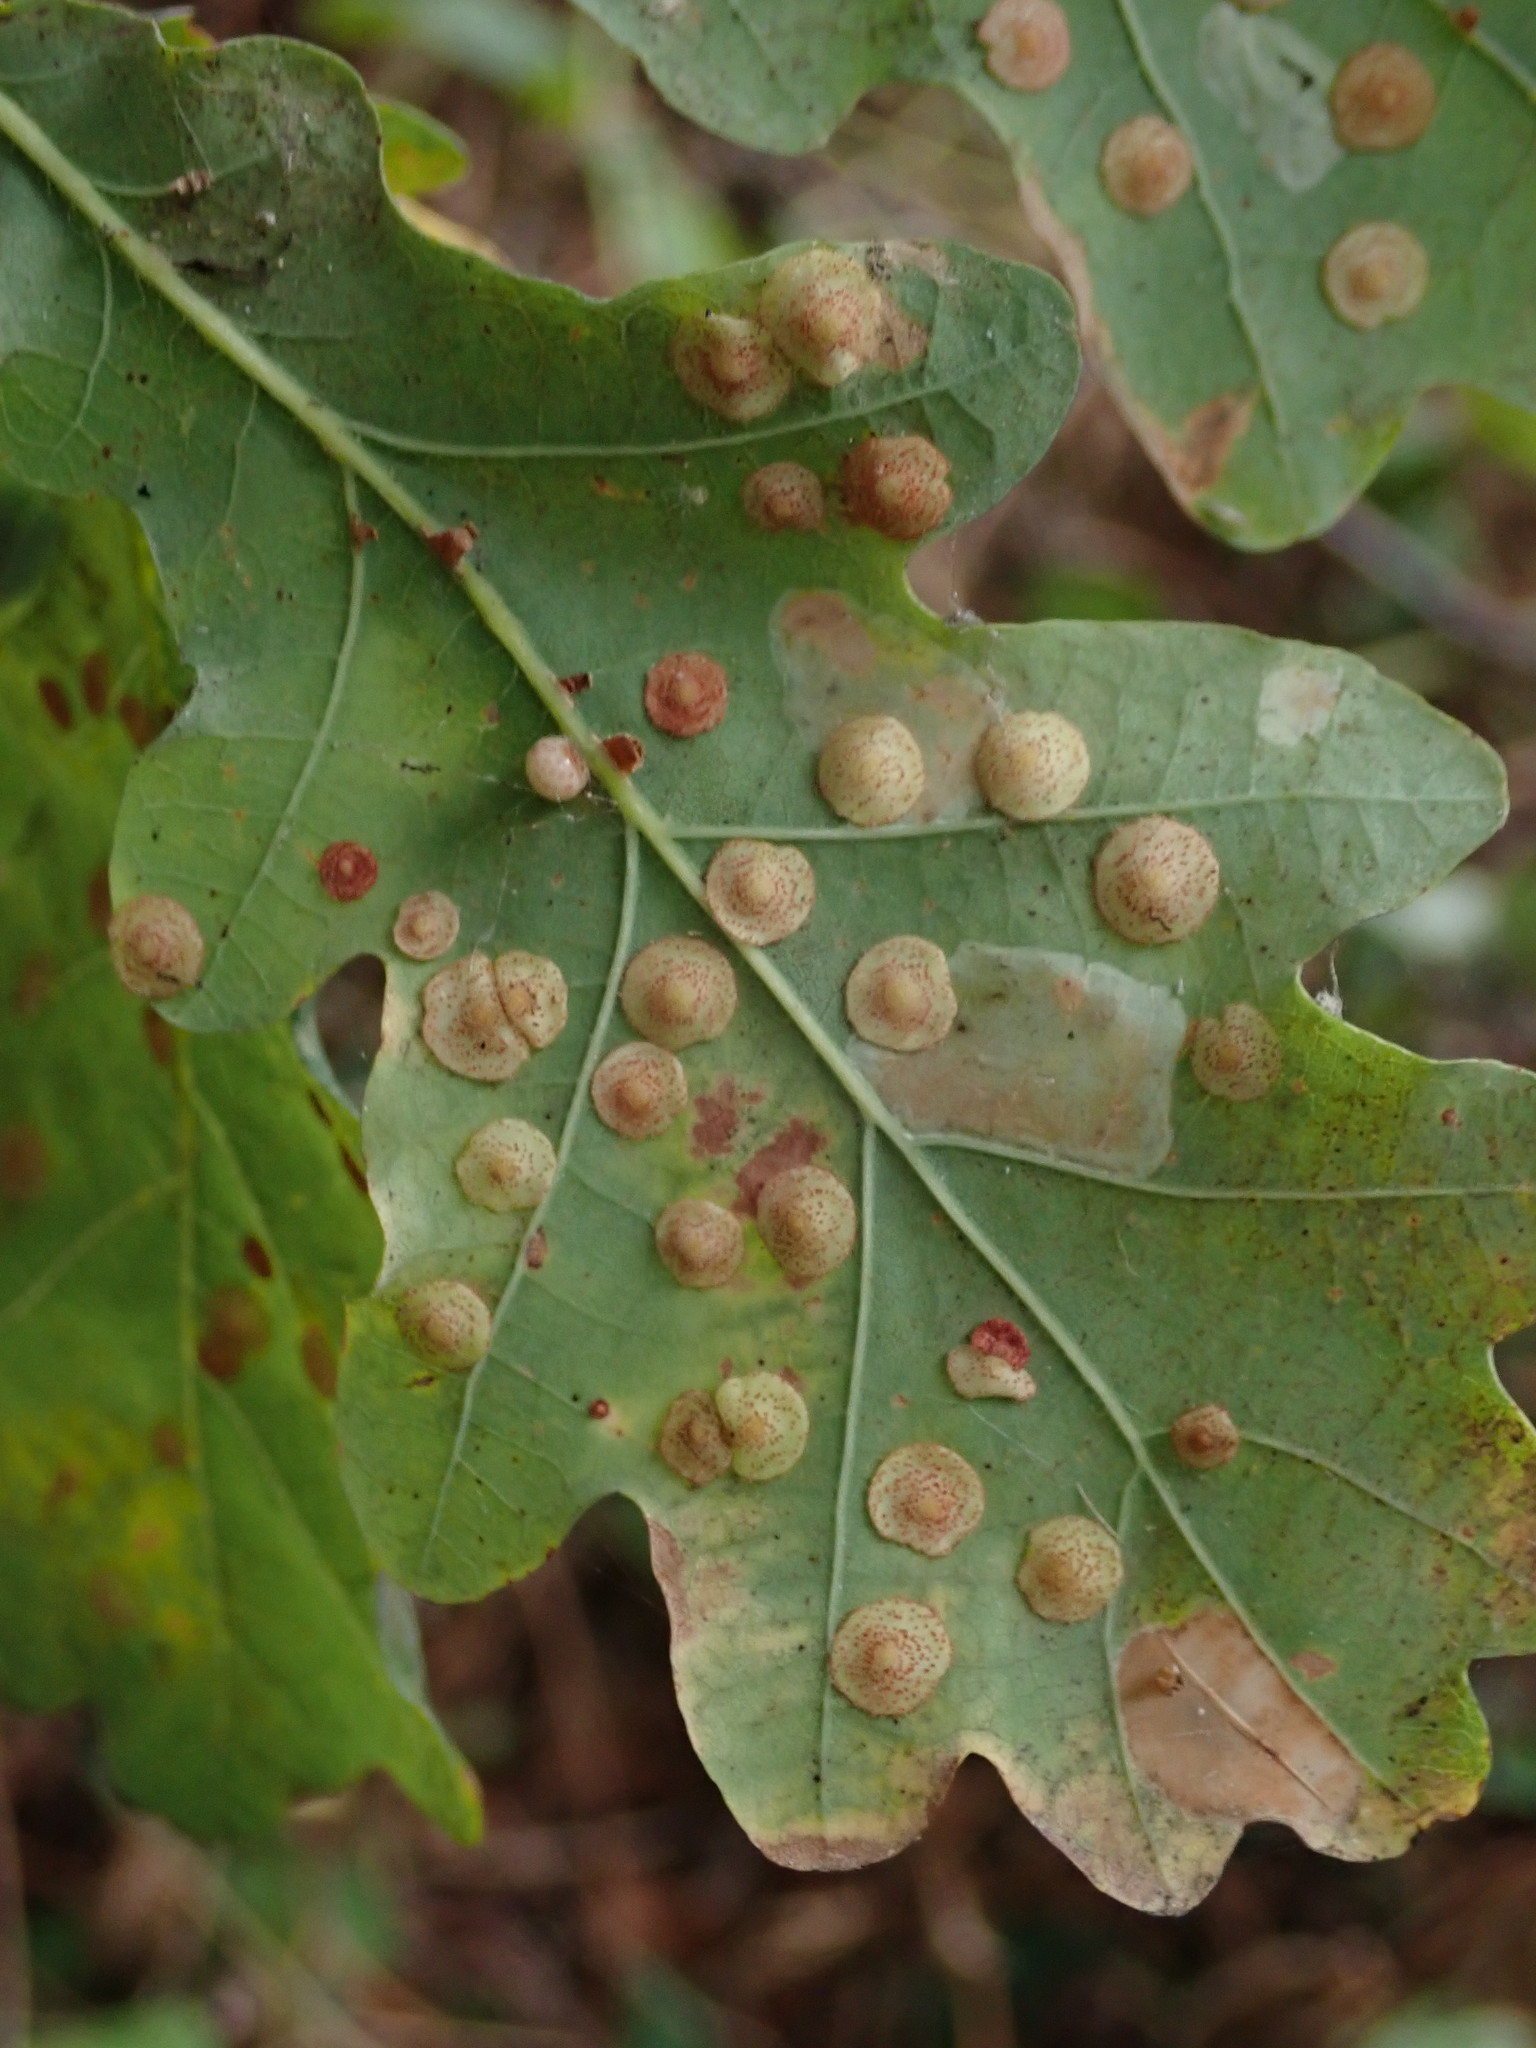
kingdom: Animalia
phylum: Arthropoda
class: Insecta
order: Hymenoptera
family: Cynipidae
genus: Neuroterus
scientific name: Neuroterus quercusbaccarum
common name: Common spangle gall
